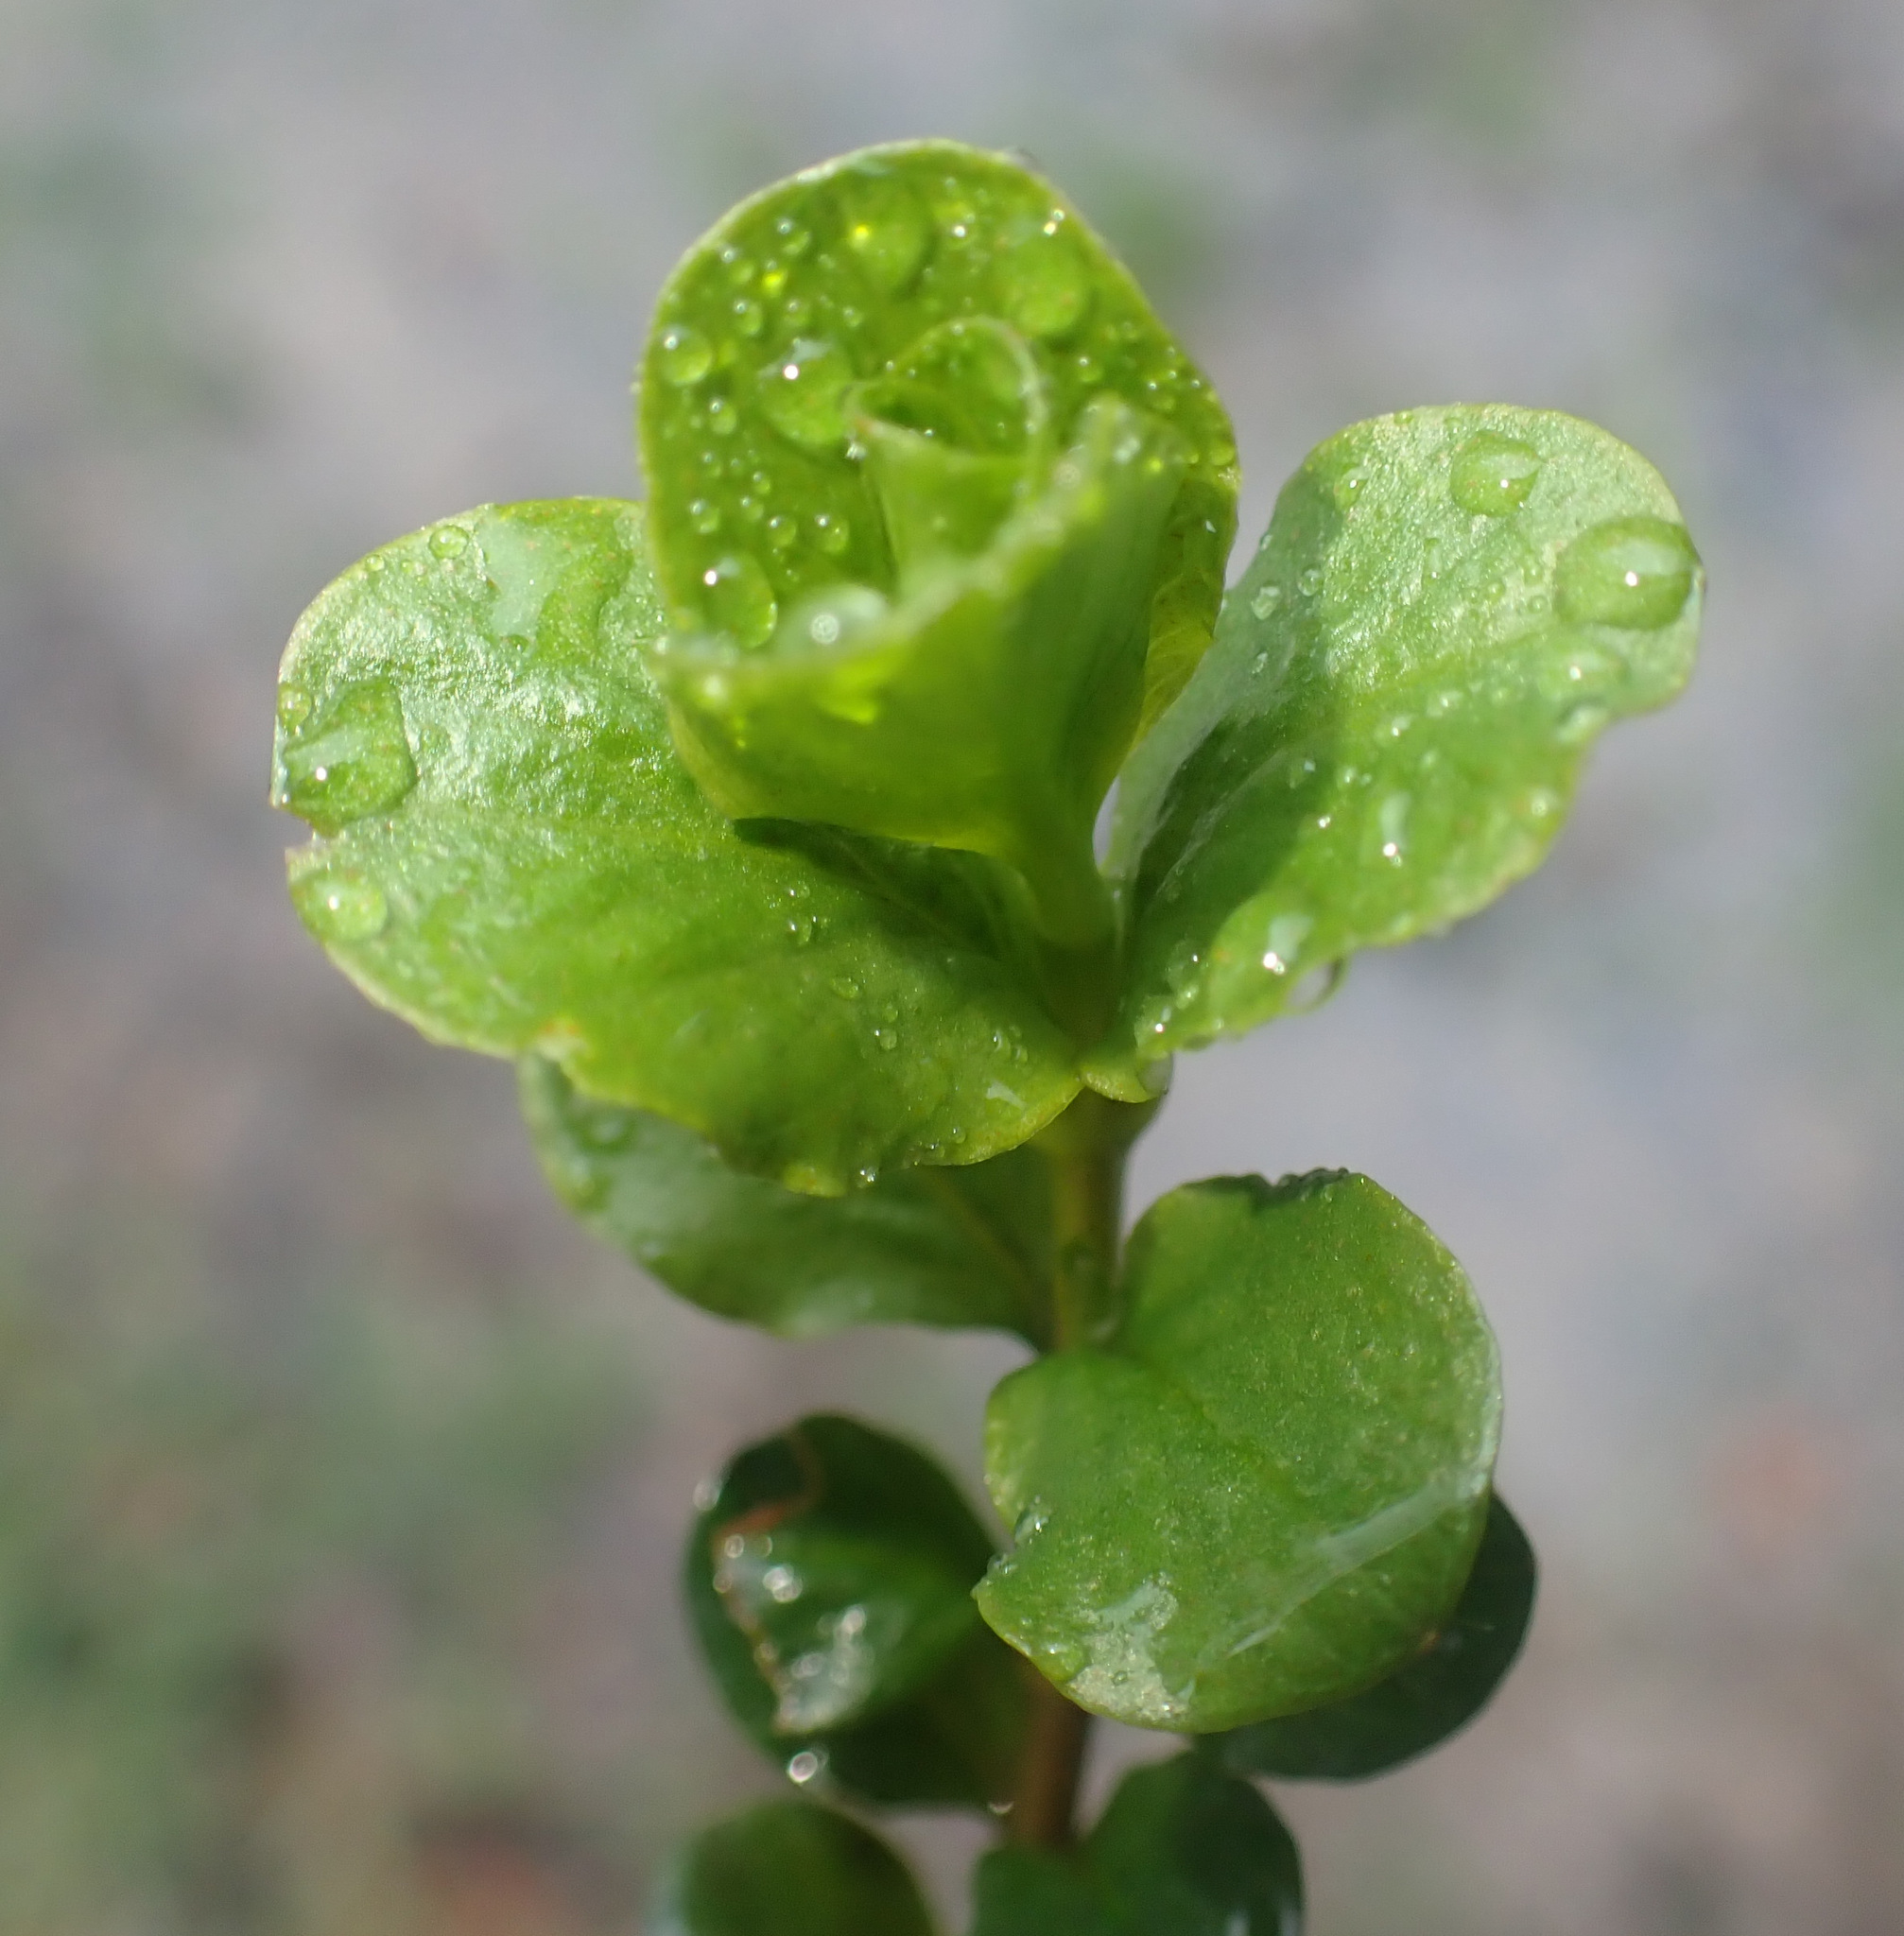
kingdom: Plantae
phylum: Tracheophyta
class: Magnoliopsida
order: Ericales
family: Primulaceae
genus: Lysimachia
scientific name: Lysimachia nummularia
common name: Moneywort
